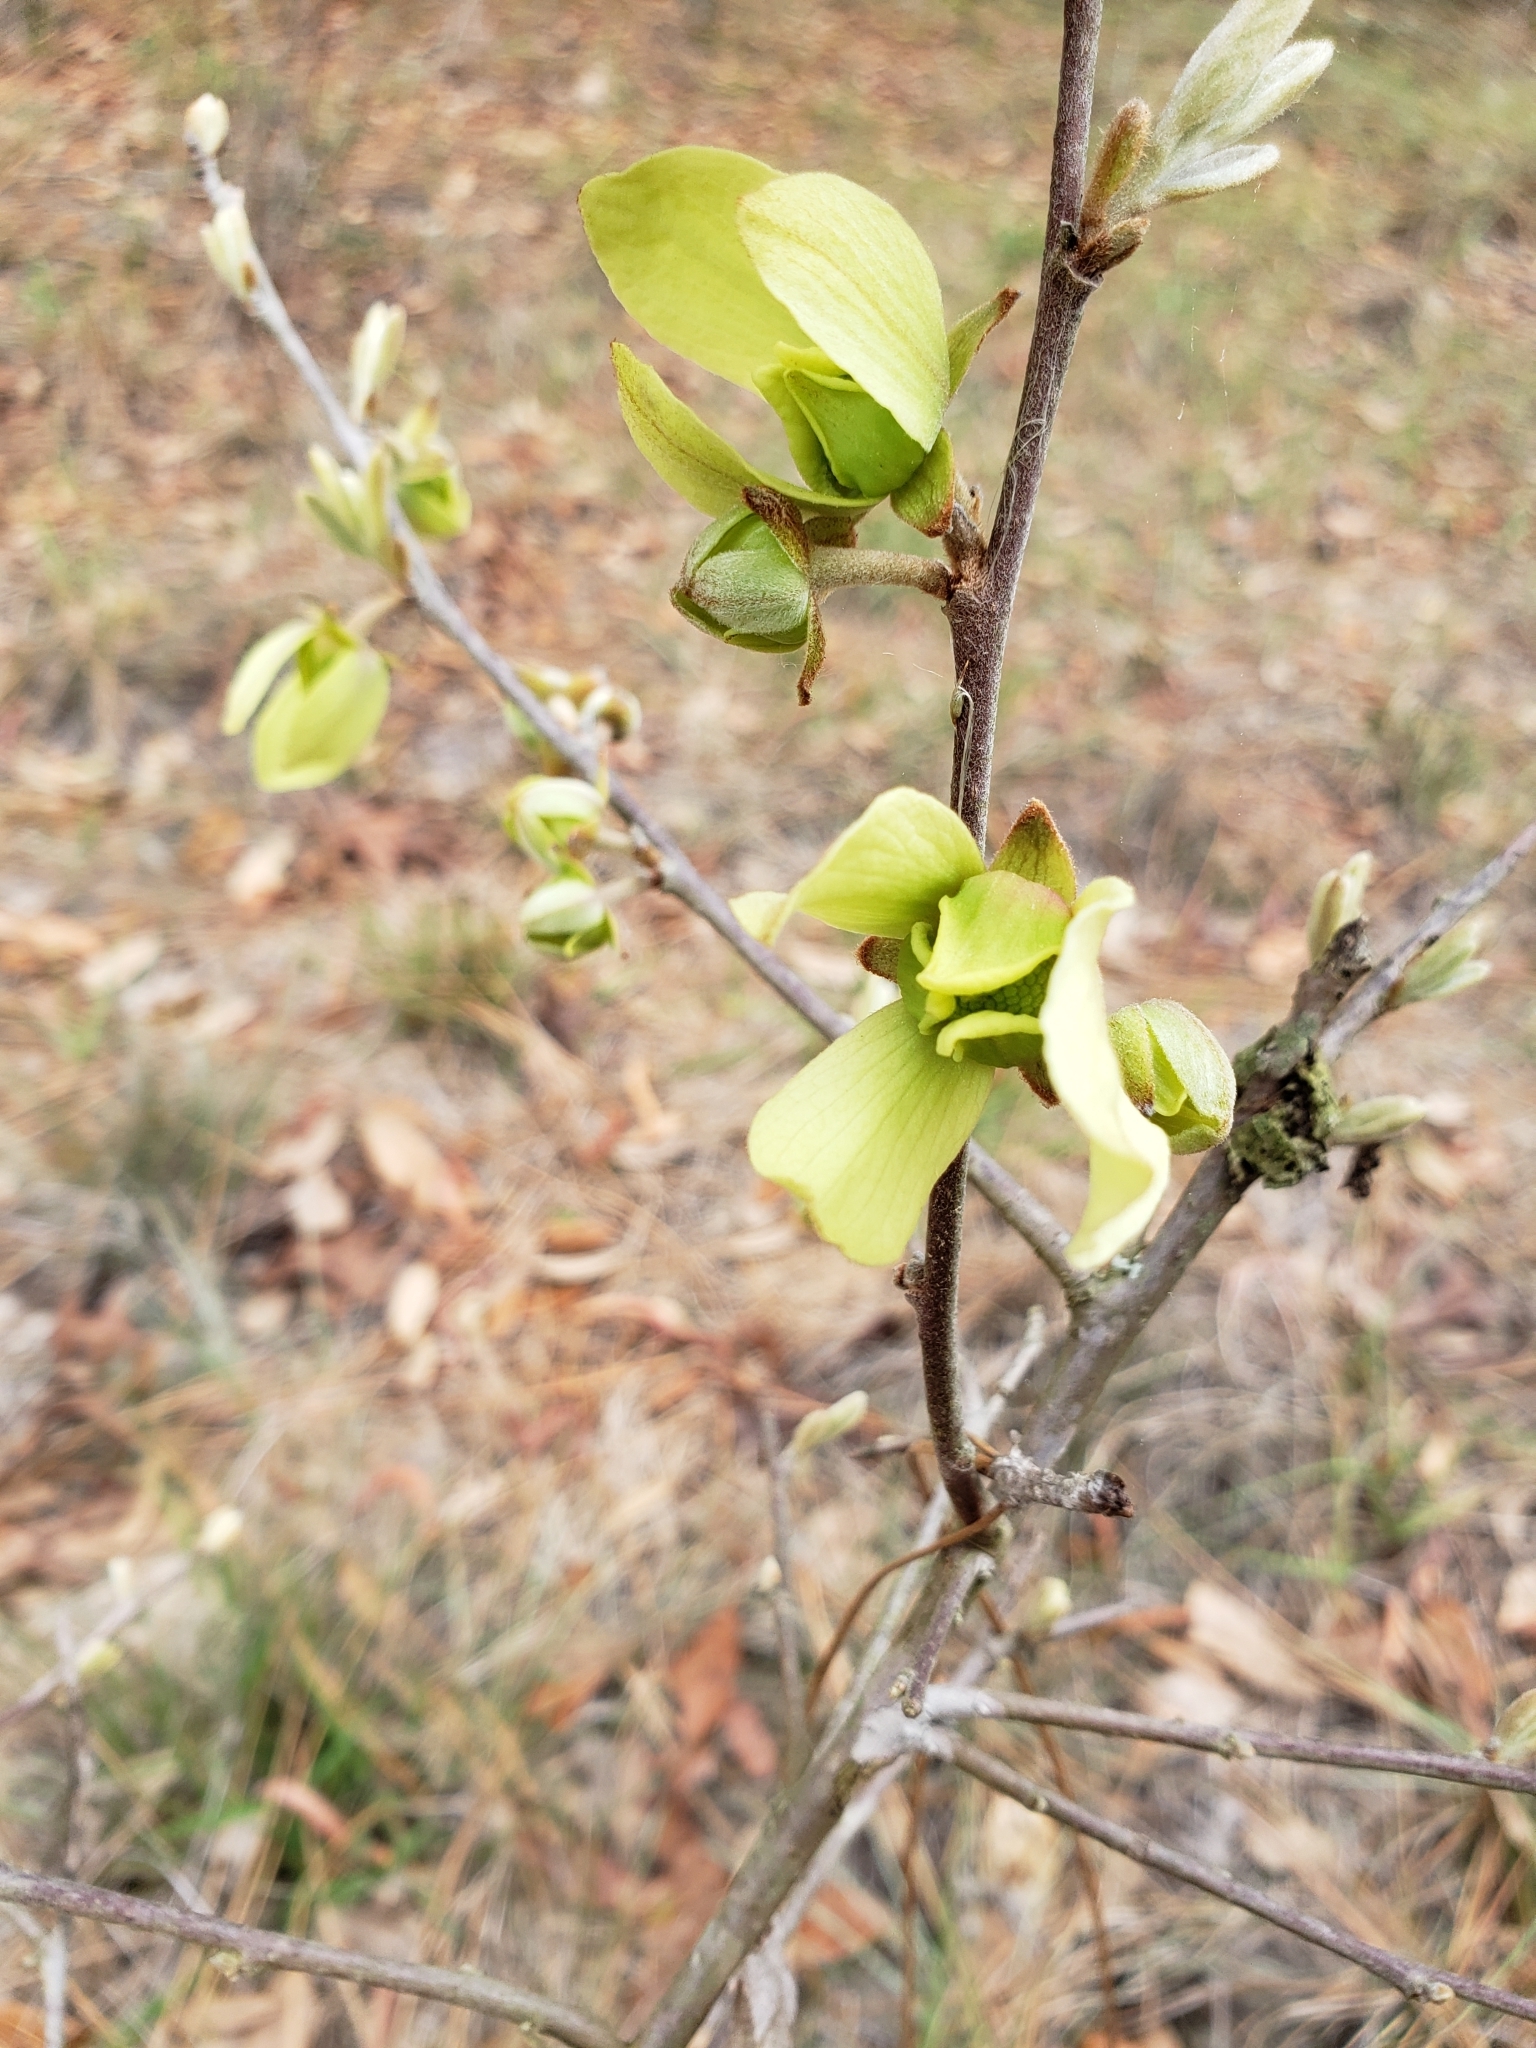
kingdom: Plantae
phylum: Tracheophyta
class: Magnoliopsida
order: Magnoliales
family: Annonaceae
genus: Asimina
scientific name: Asimina speciosa
